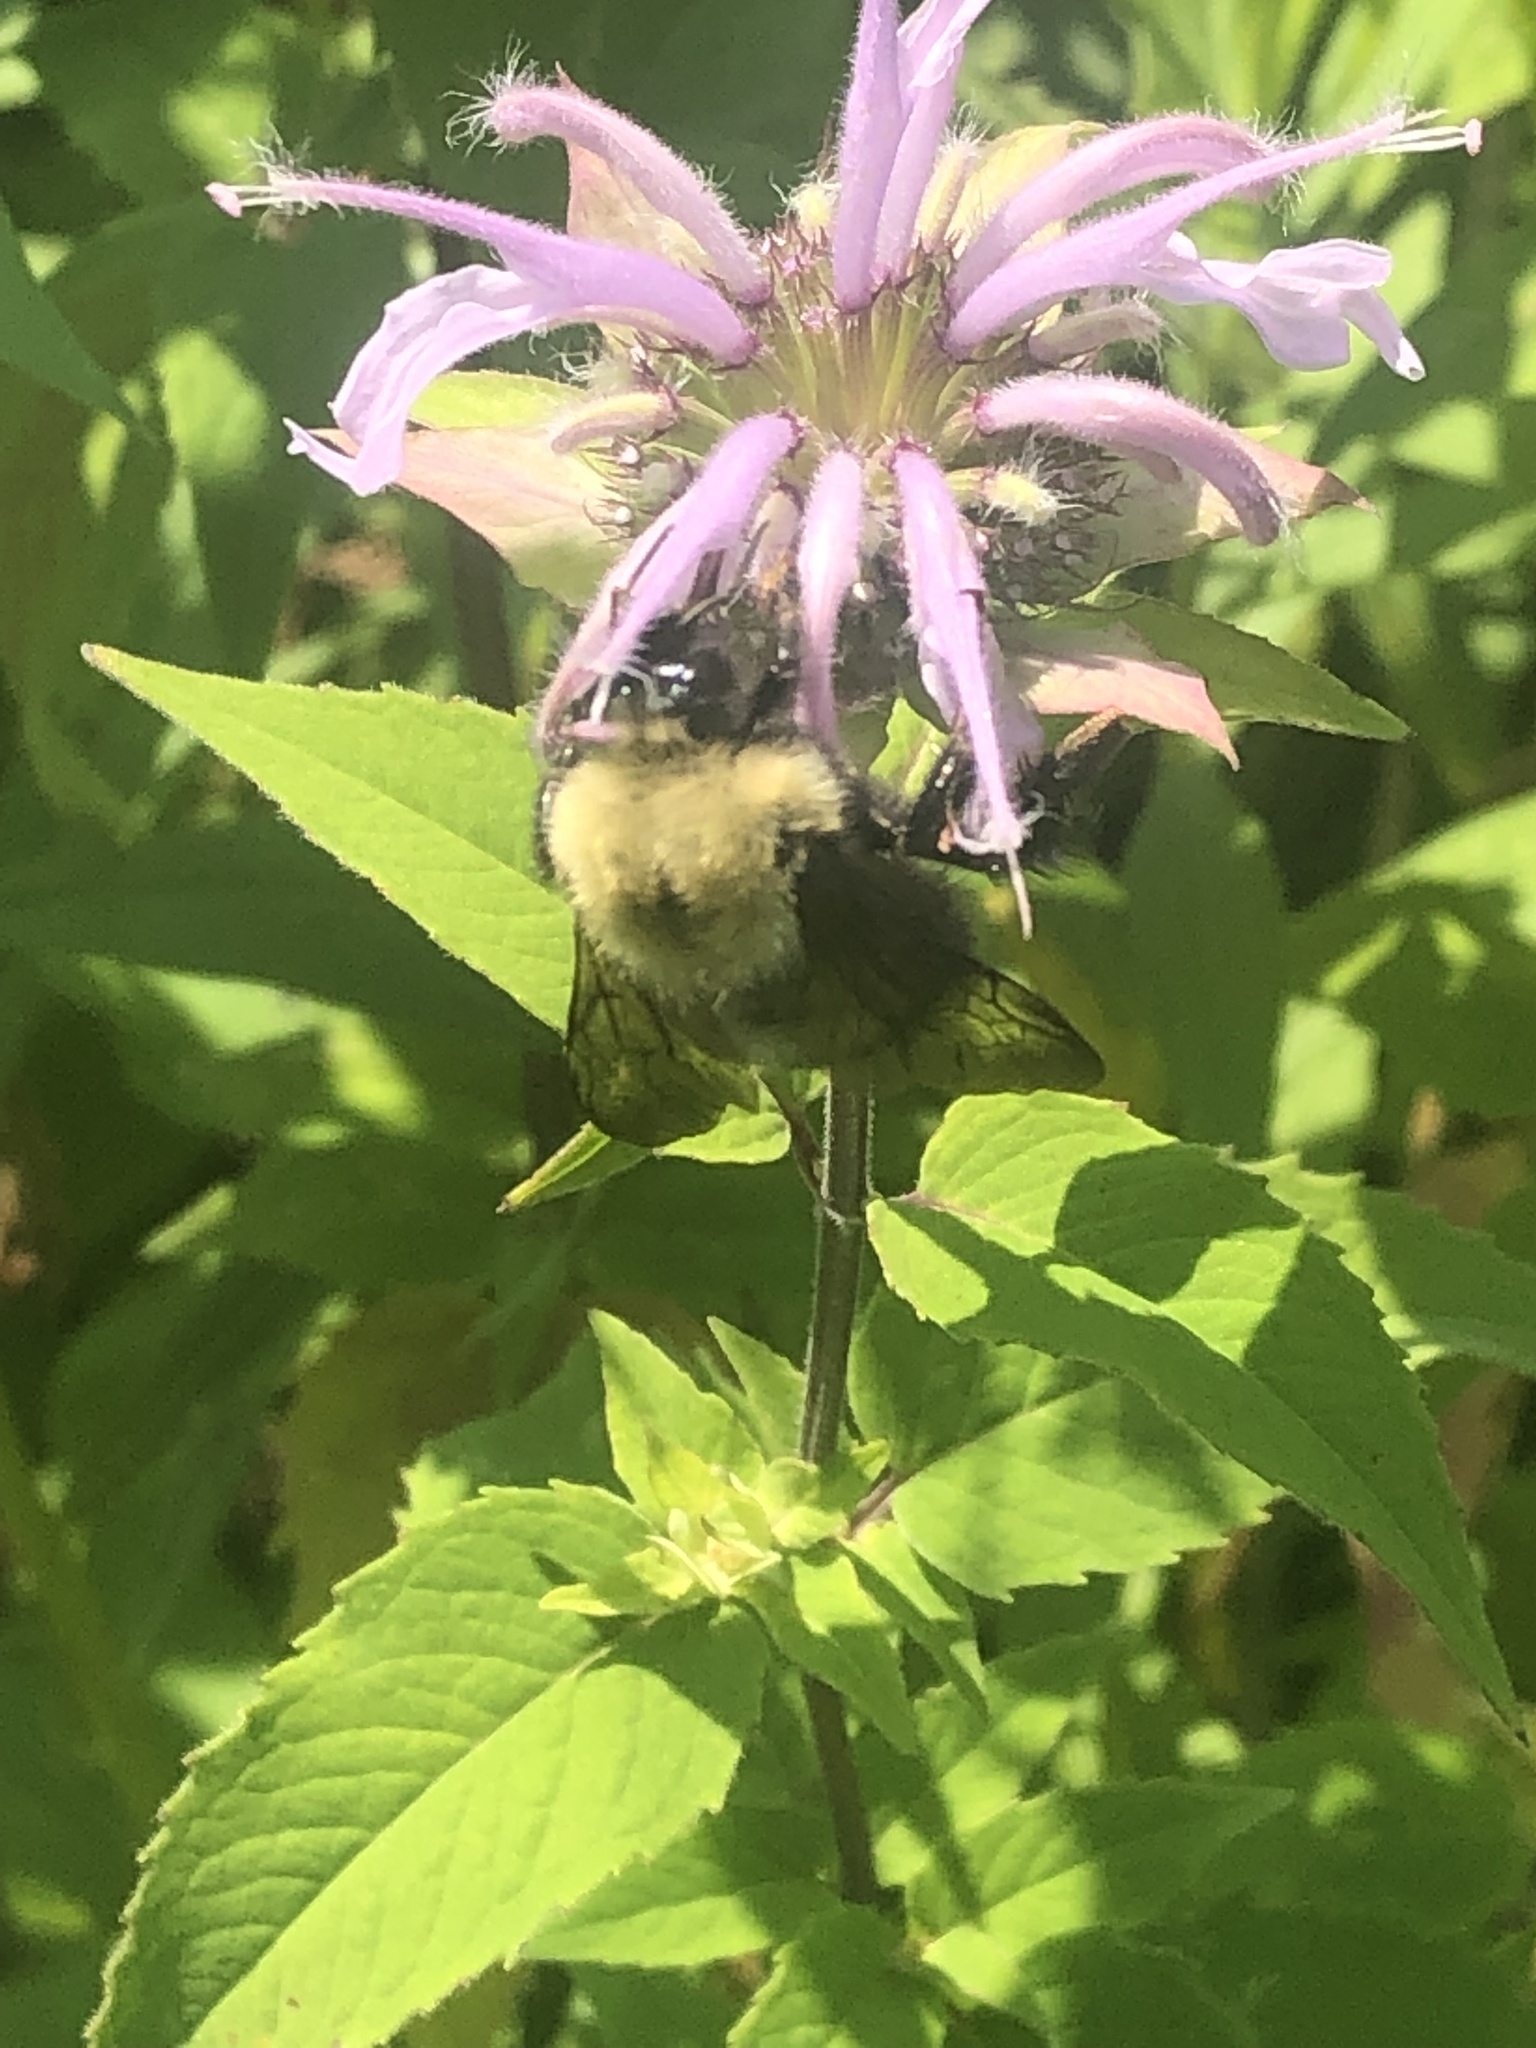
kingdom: Animalia
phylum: Arthropoda
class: Insecta
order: Hymenoptera
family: Apidae
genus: Bombus
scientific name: Bombus perplexus
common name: Confusing bumble bee
